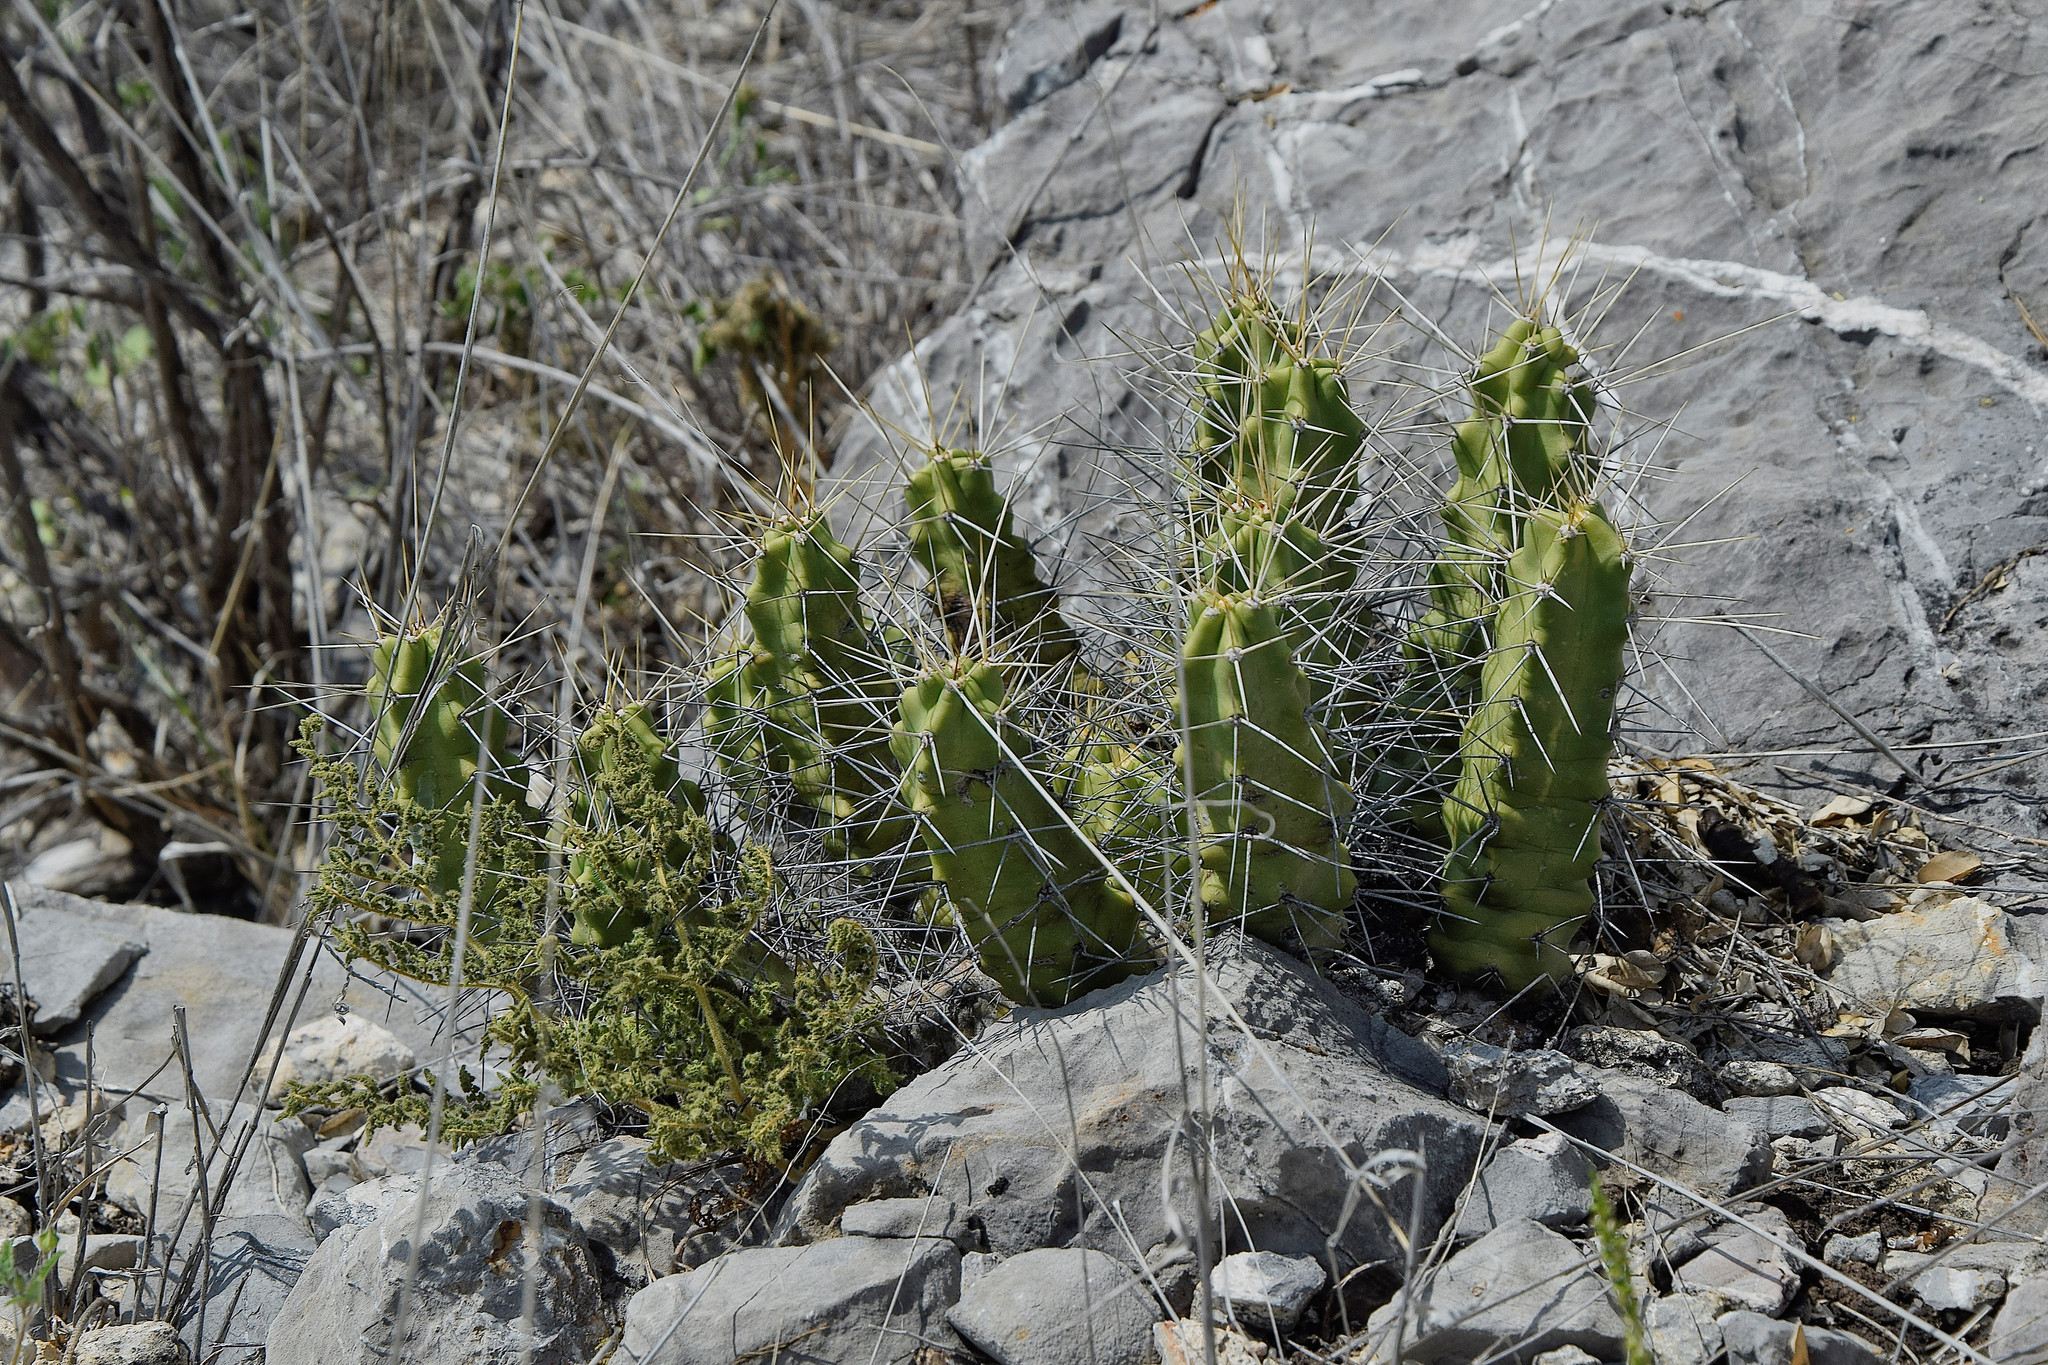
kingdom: Plantae
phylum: Tracheophyta
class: Magnoliopsida
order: Caryophyllales
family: Cactaceae
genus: Echinocereus
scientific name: Echinocereus pentalophus
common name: Ladyfinger cactus
